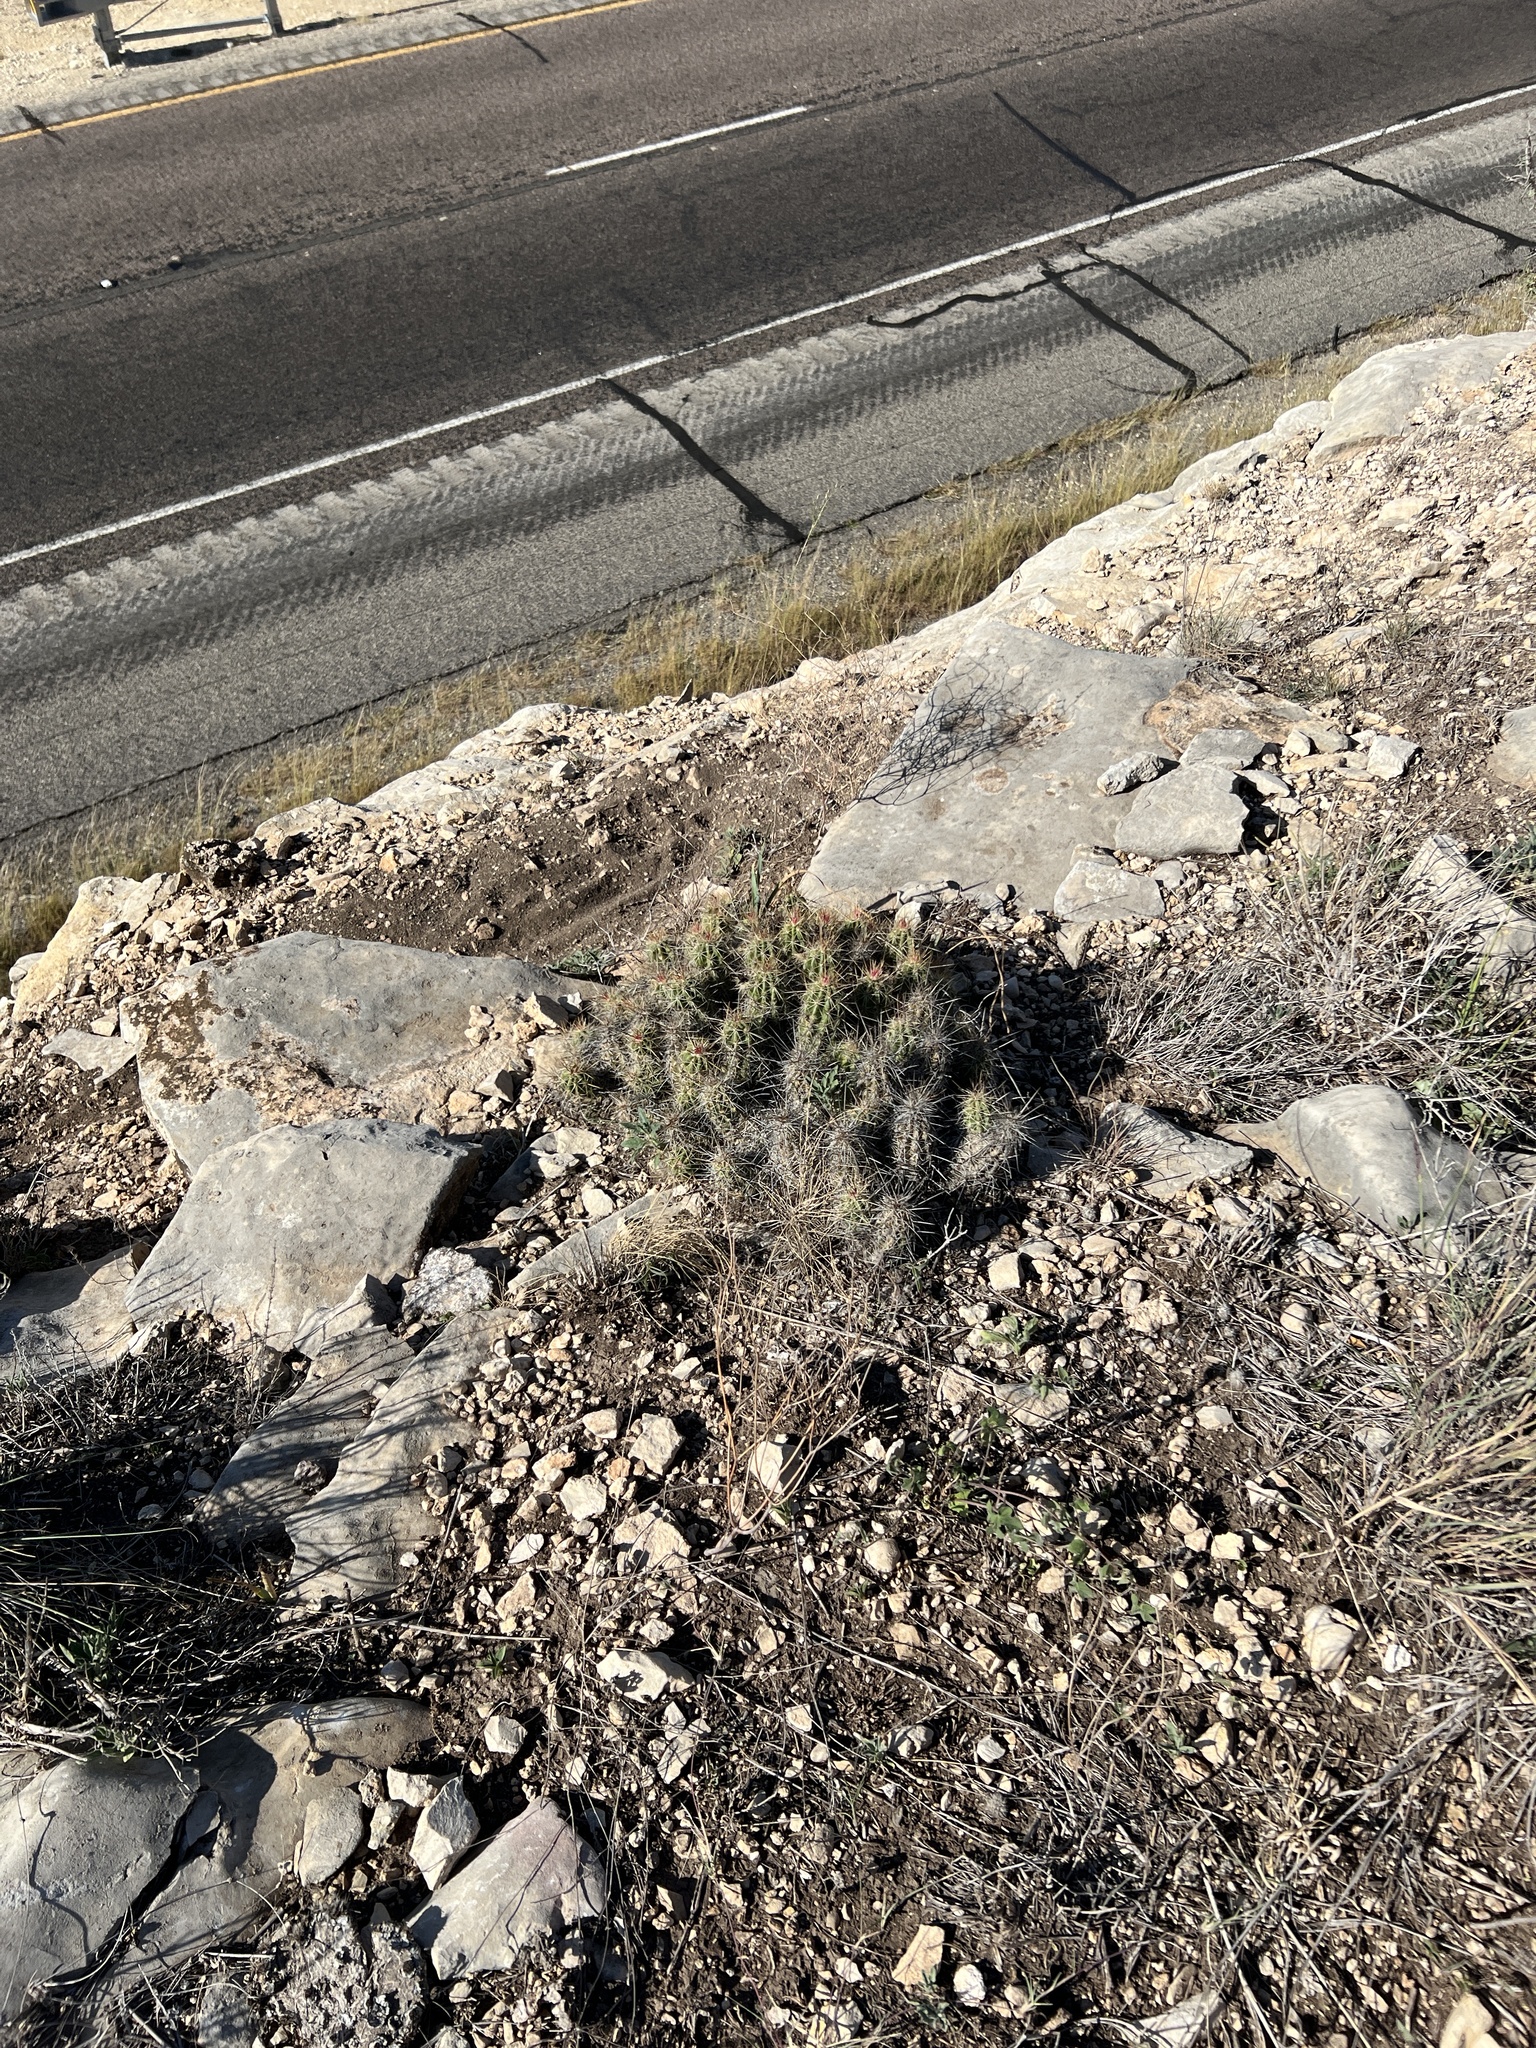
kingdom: Plantae
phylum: Tracheophyta
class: Magnoliopsida
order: Caryophyllales
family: Cactaceae
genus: Echinocereus
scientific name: Echinocereus enneacanthus
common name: Pitaya
